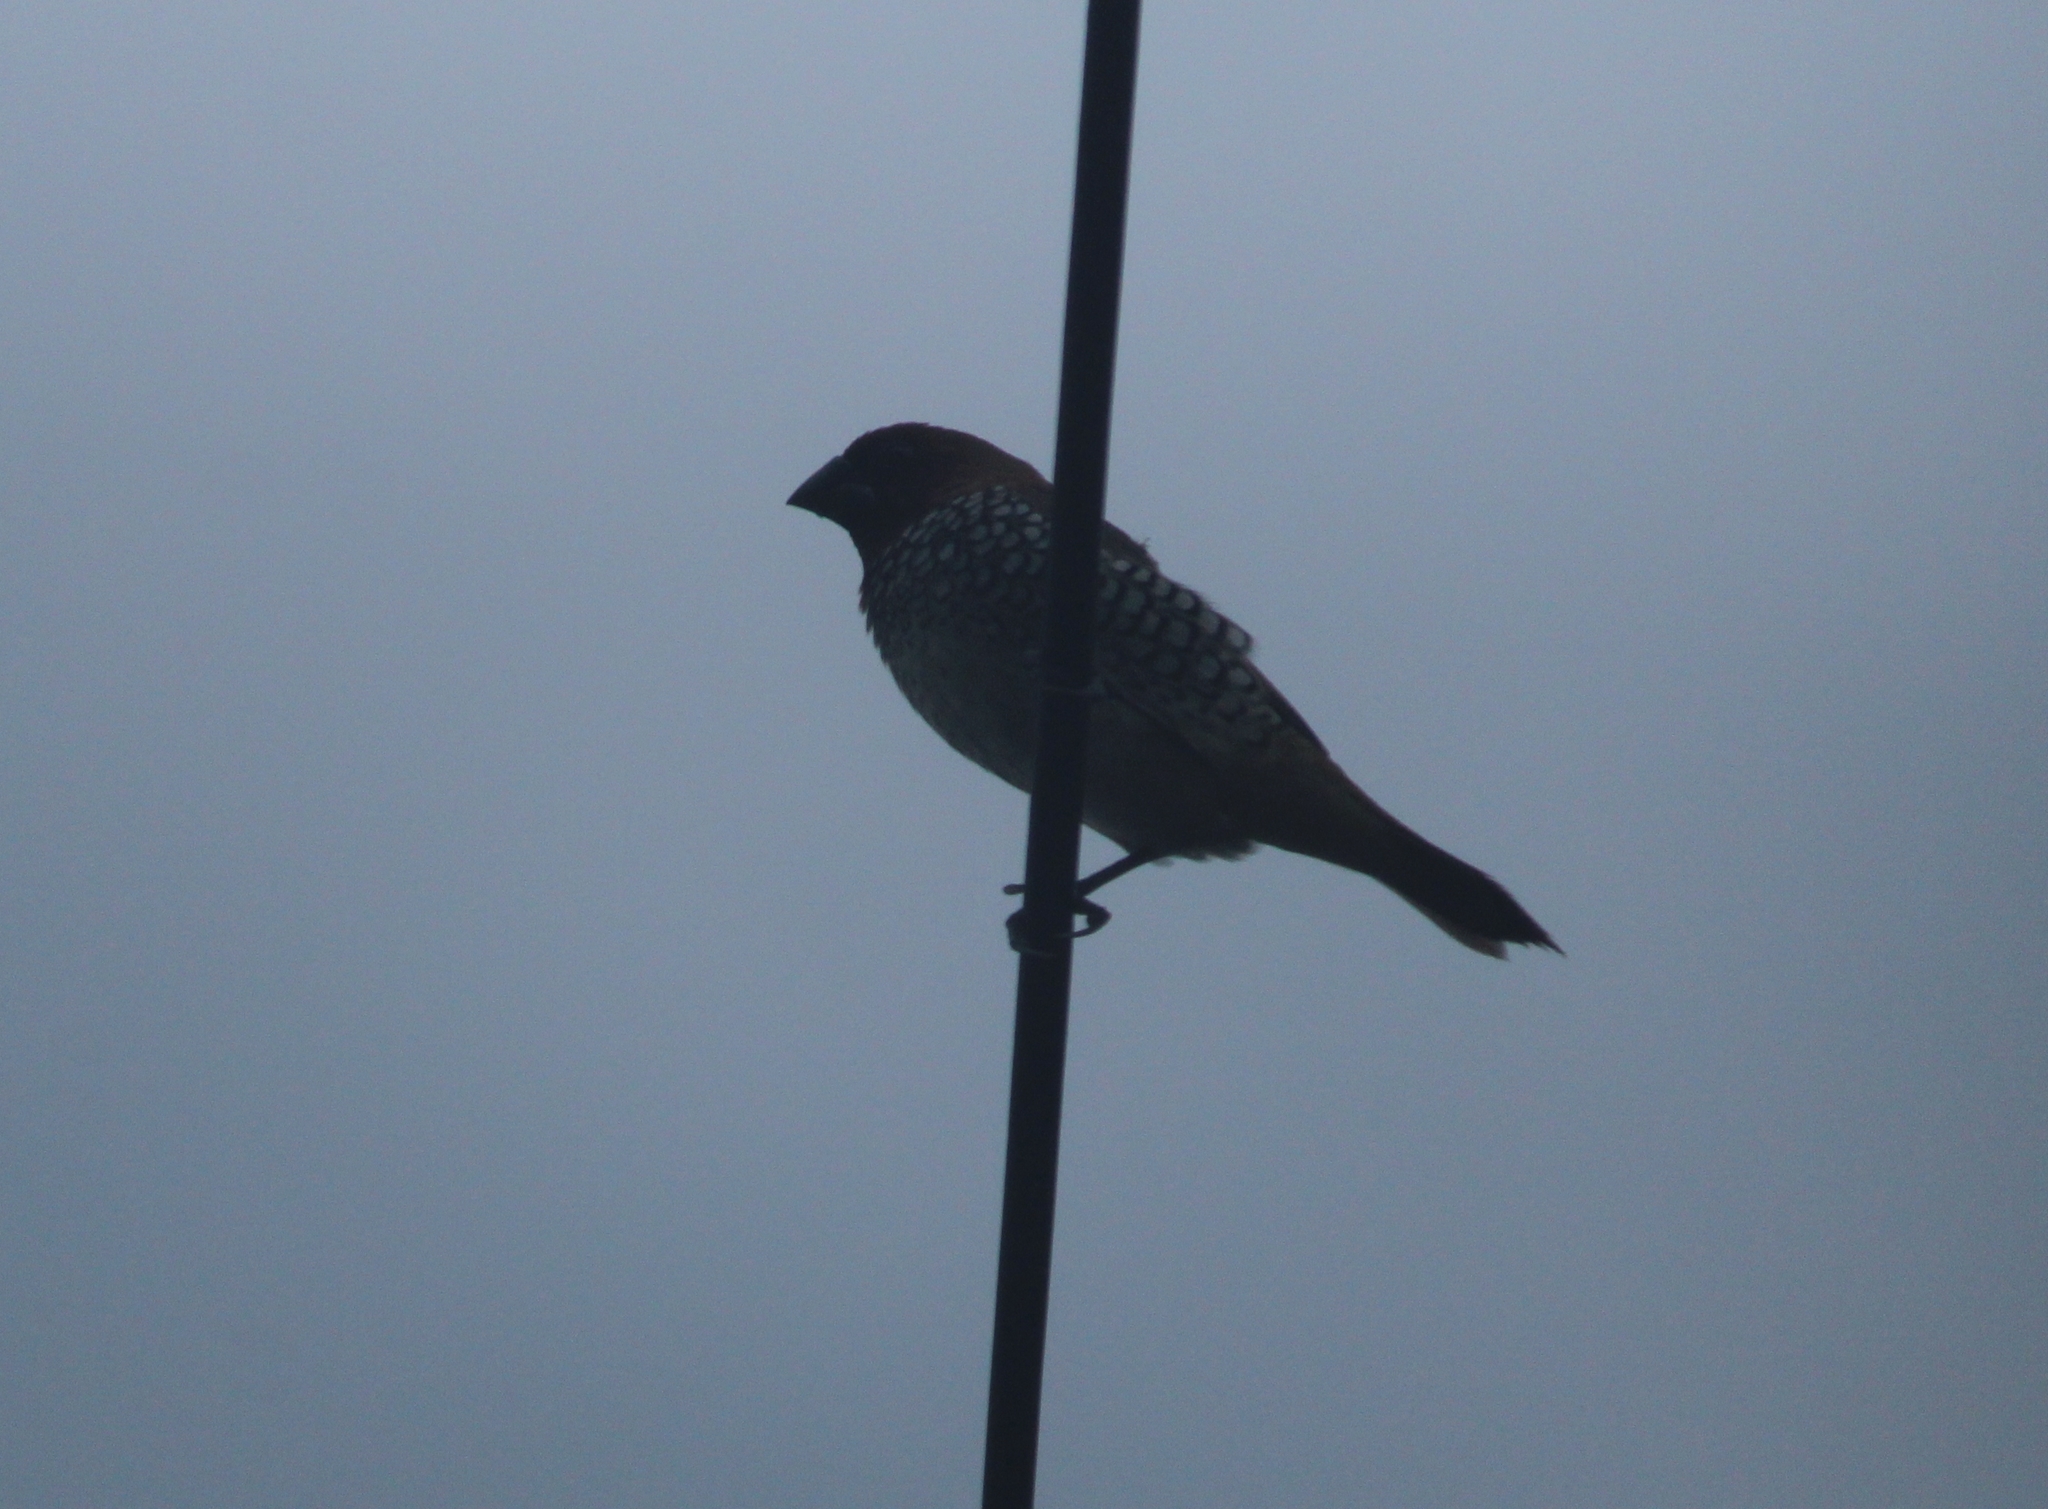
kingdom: Animalia
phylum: Chordata
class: Aves
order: Passeriformes
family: Estrildidae
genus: Lonchura
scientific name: Lonchura punctulata
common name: Scaly-breasted munia
